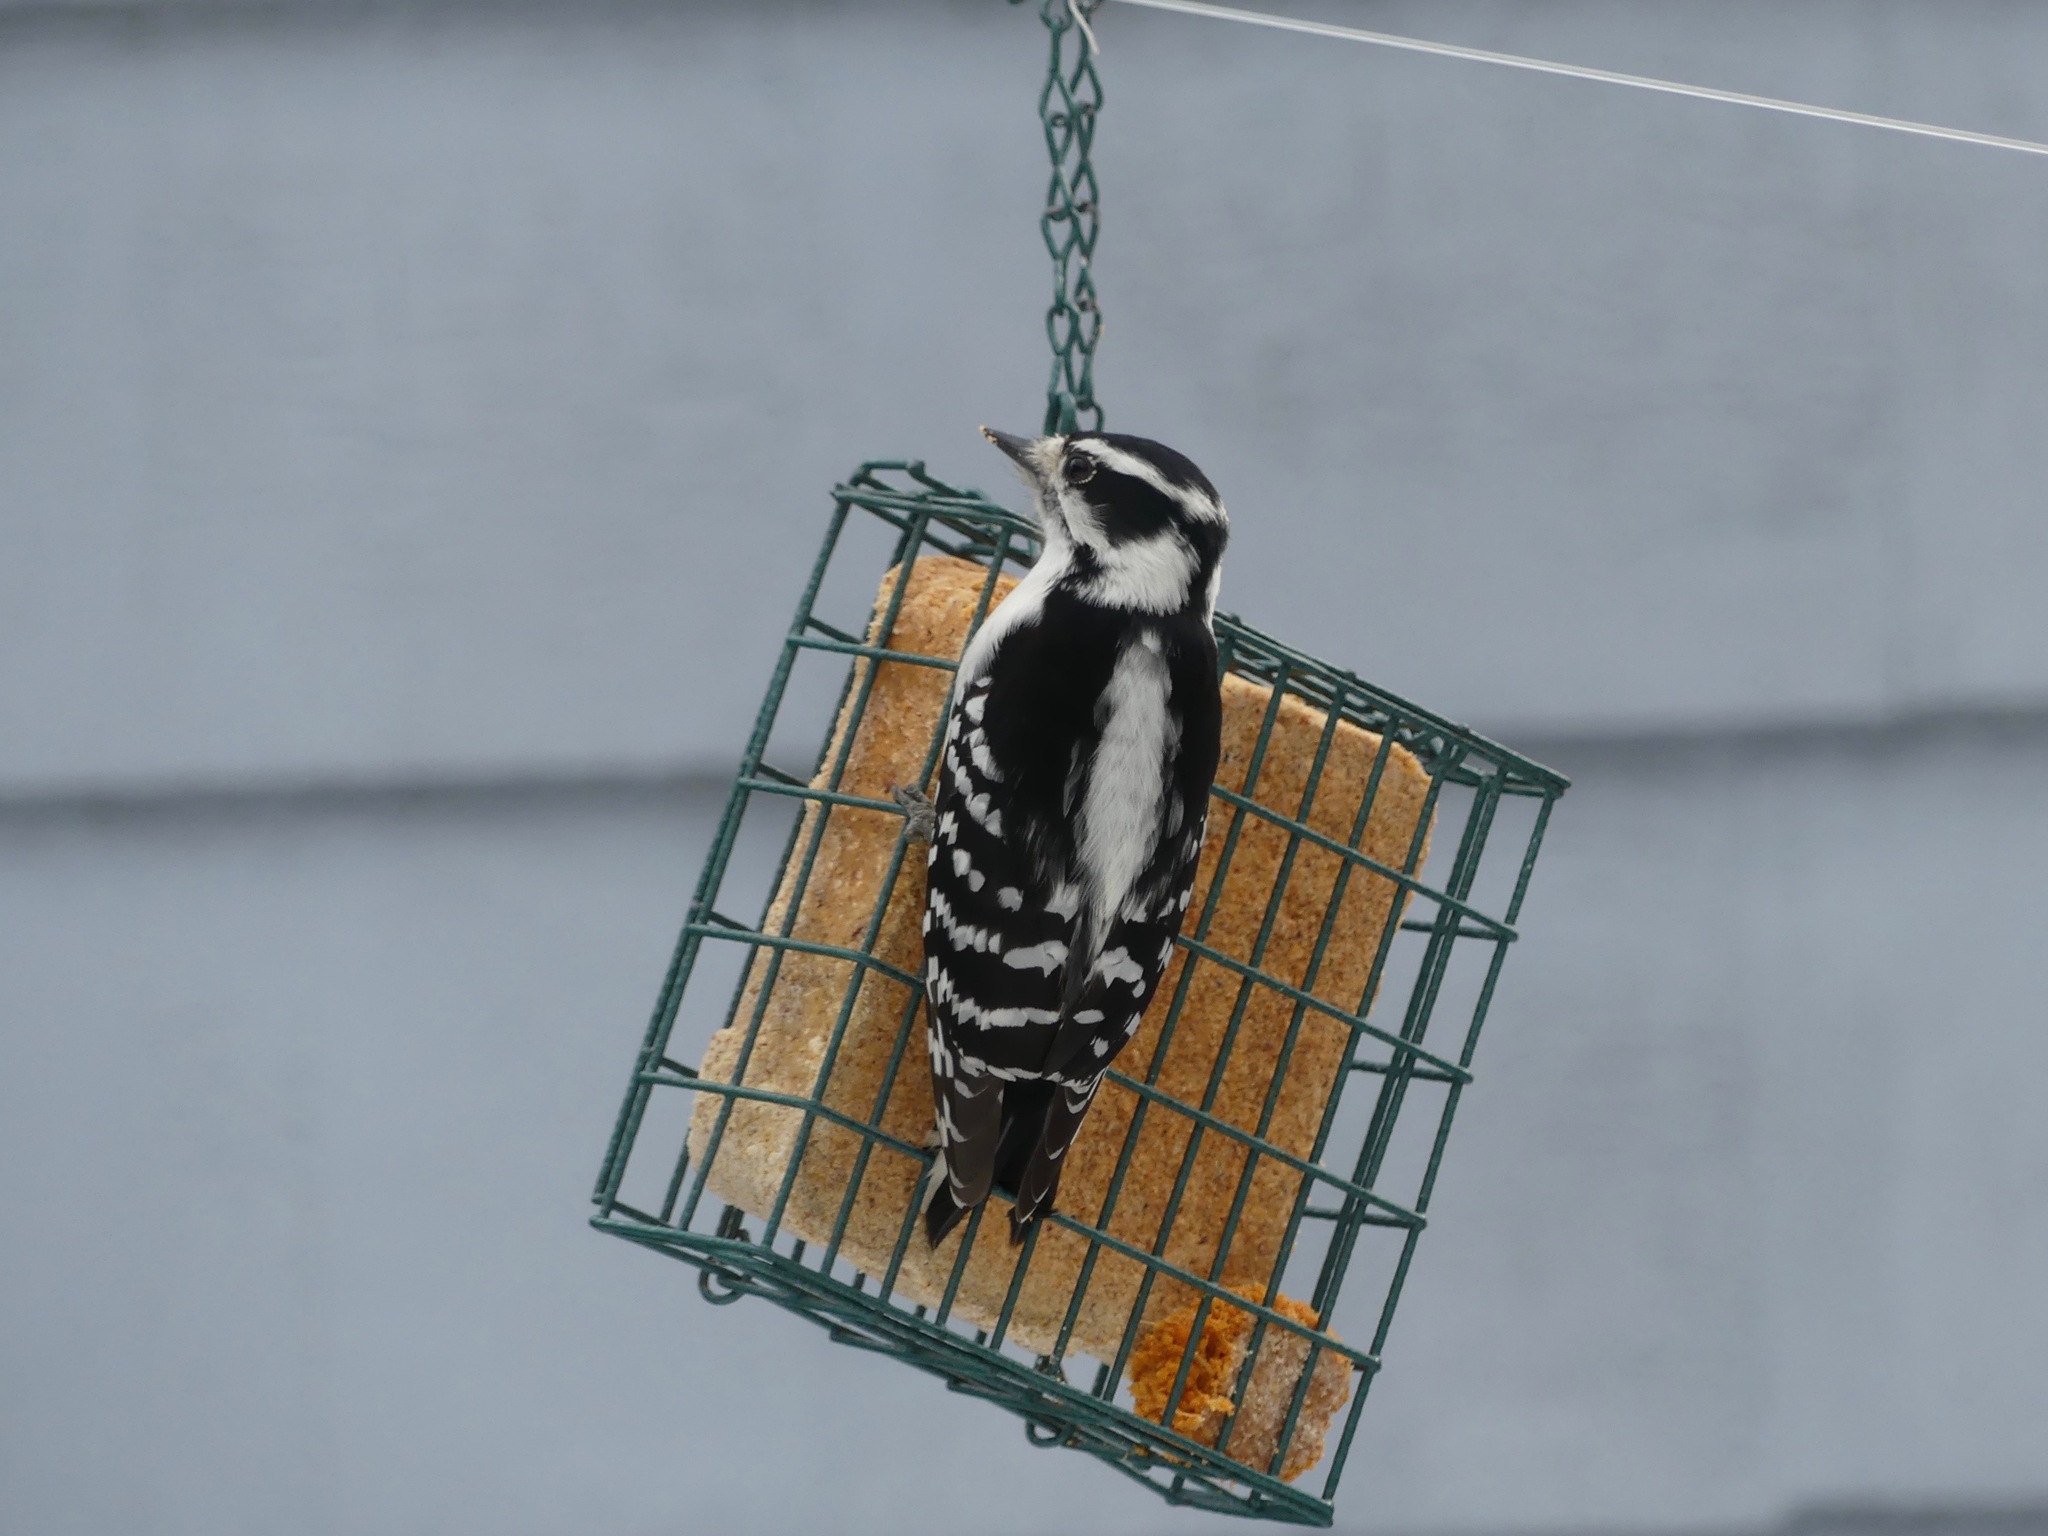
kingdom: Animalia
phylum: Chordata
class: Aves
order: Piciformes
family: Picidae
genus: Dryobates
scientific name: Dryobates pubescens
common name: Downy woodpecker
